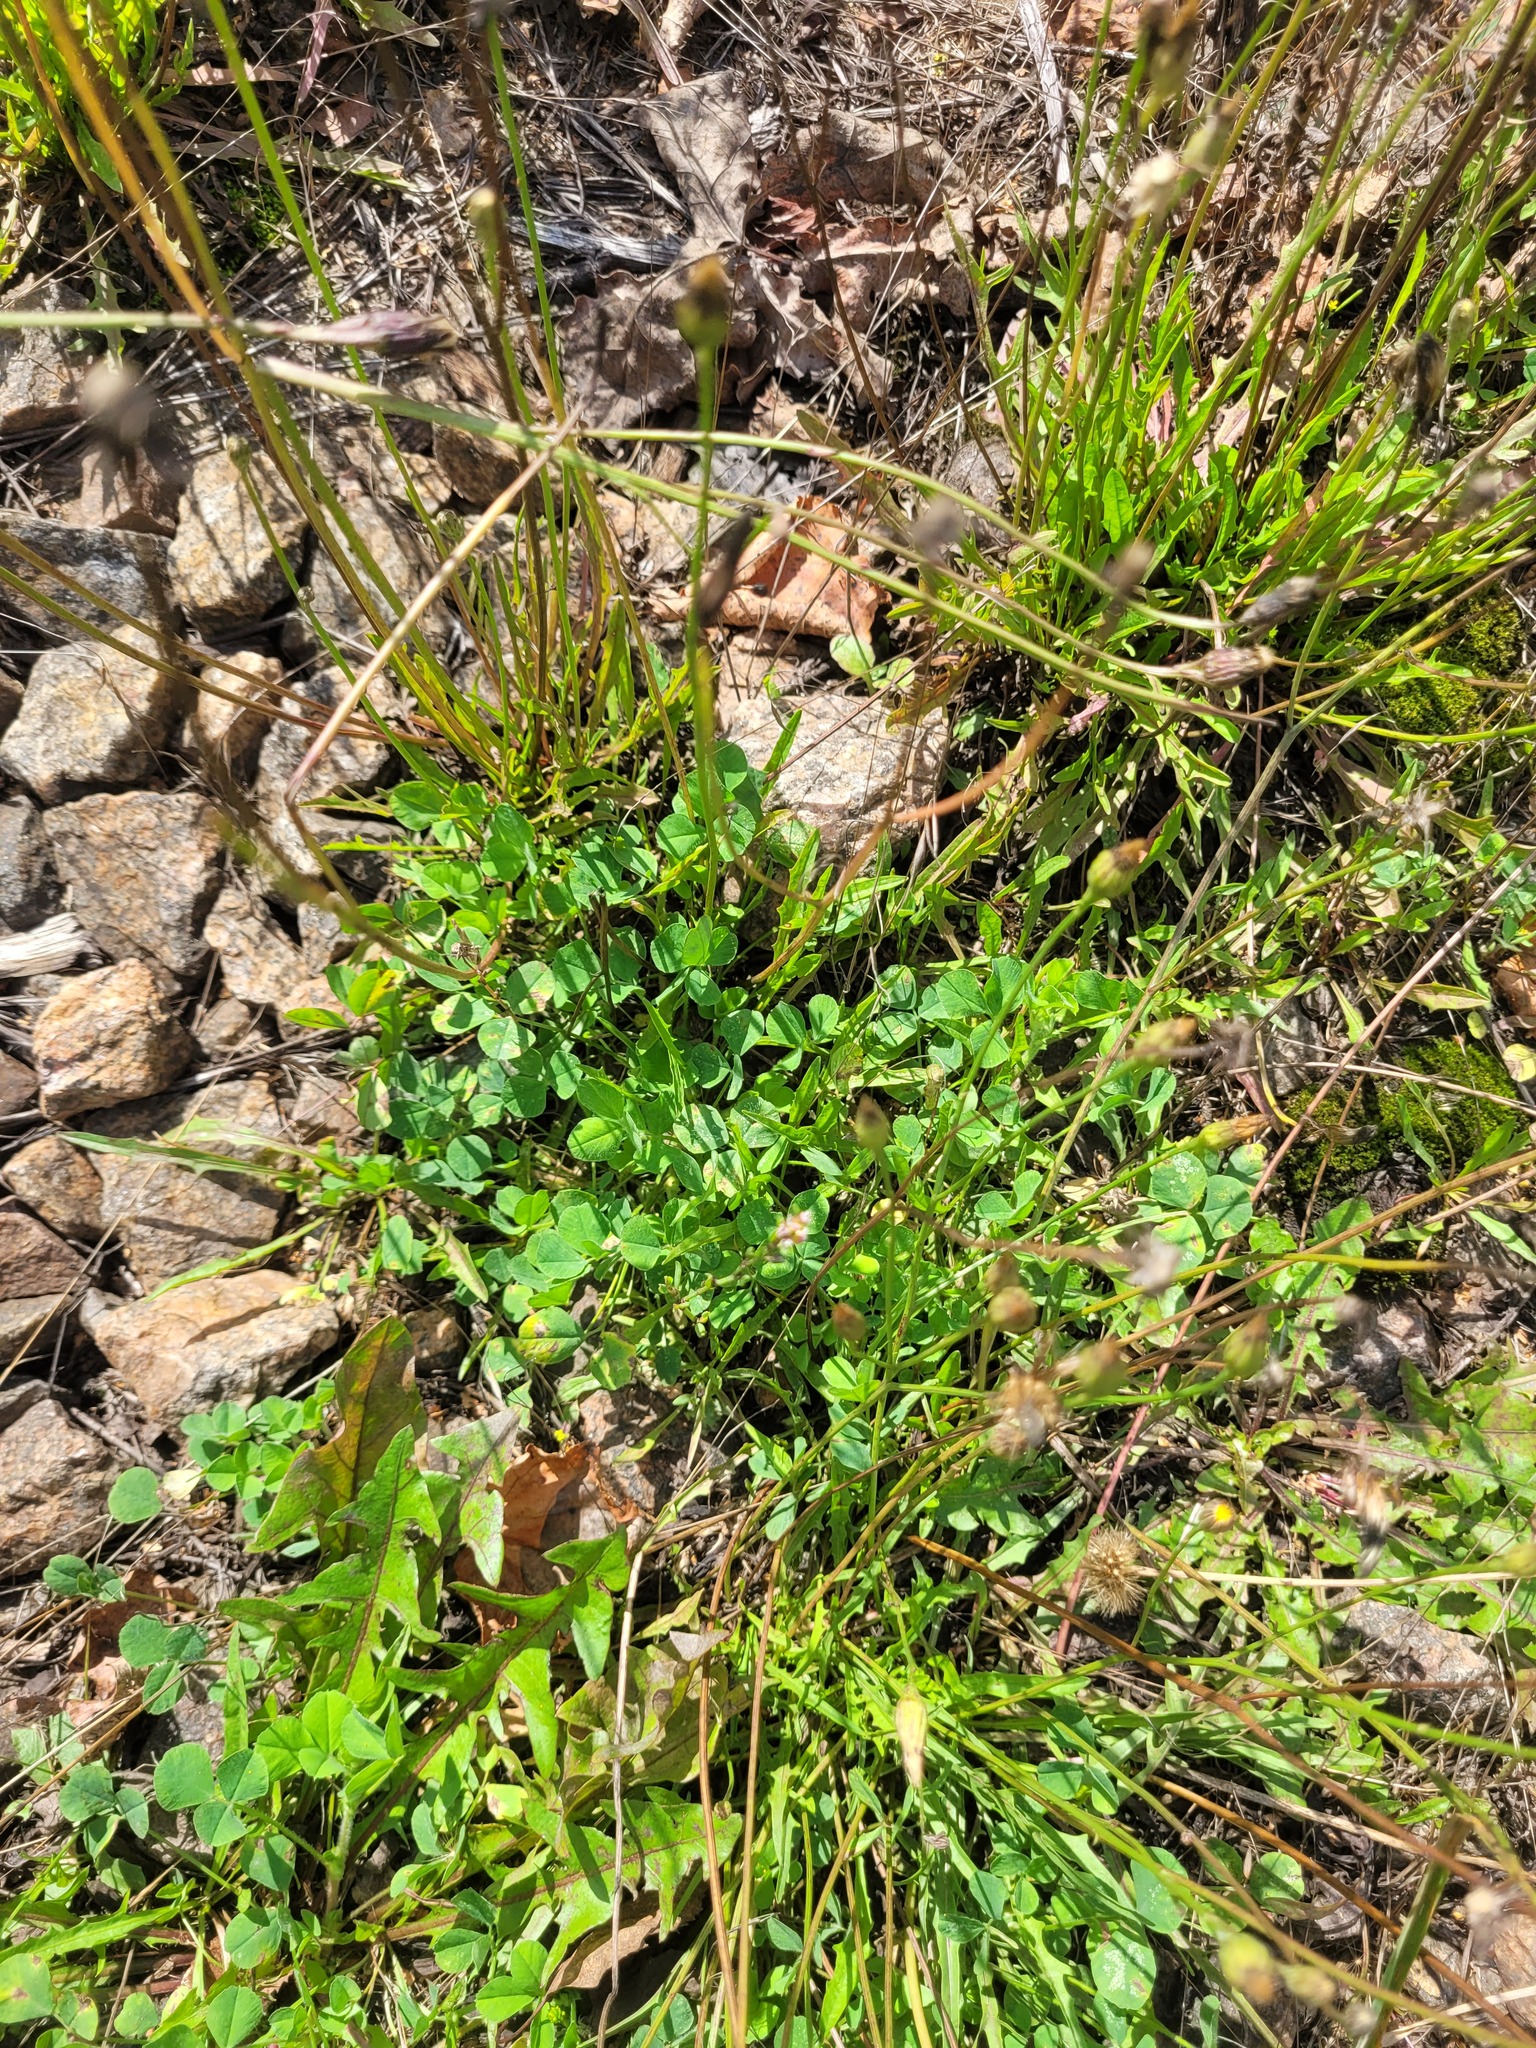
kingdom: Plantae
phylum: Tracheophyta
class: Magnoliopsida
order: Asterales
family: Asteraceae
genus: Scorzoneroides
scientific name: Scorzoneroides autumnalis
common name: Autumn hawkbit
